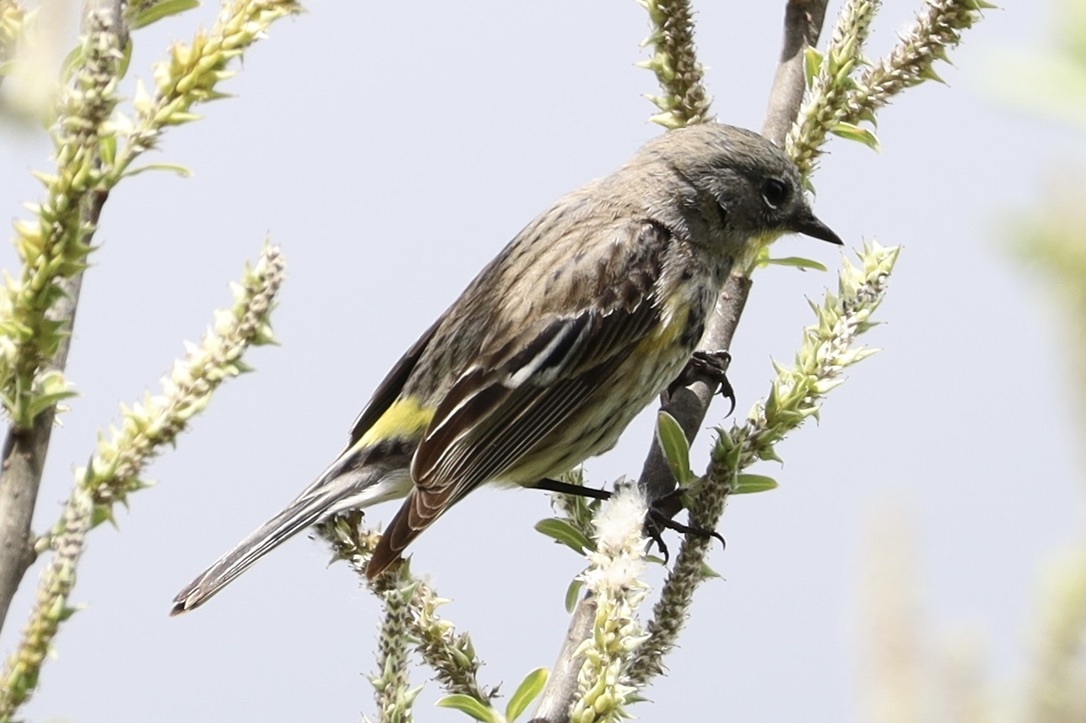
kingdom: Animalia
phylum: Chordata
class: Aves
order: Passeriformes
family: Parulidae
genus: Setophaga
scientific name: Setophaga coronata
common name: Myrtle warbler
